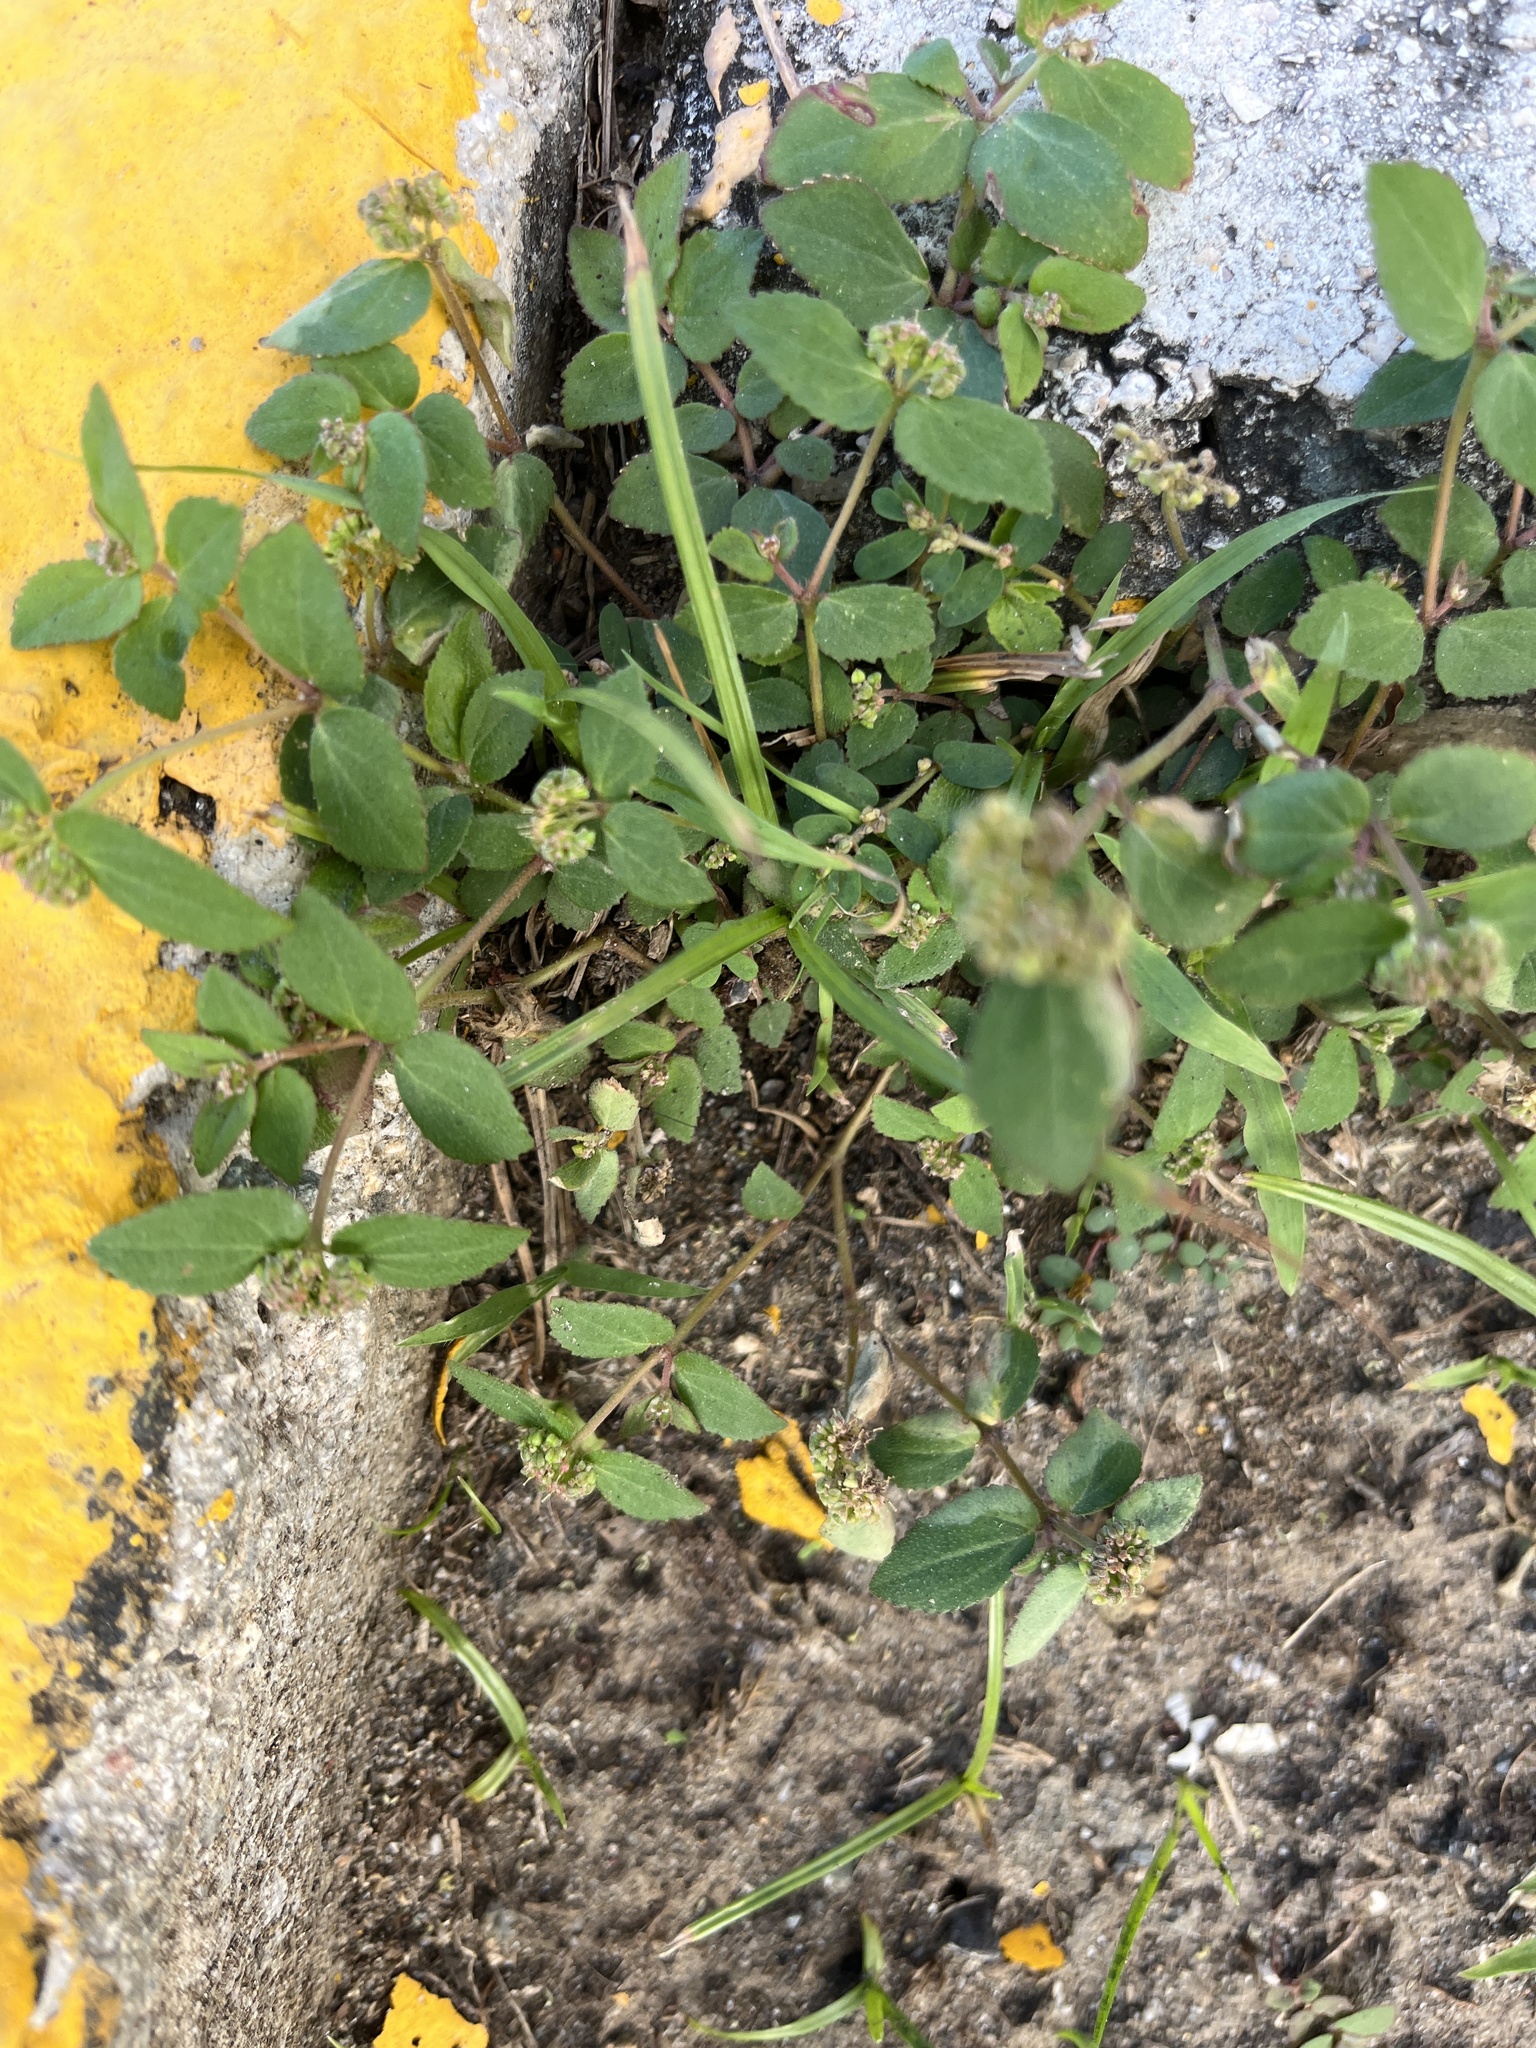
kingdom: Plantae
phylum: Tracheophyta
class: Magnoliopsida
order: Malpighiales
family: Euphorbiaceae
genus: Euphorbia
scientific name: Euphorbia ophthalmica
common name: Florida hammock sandmat
